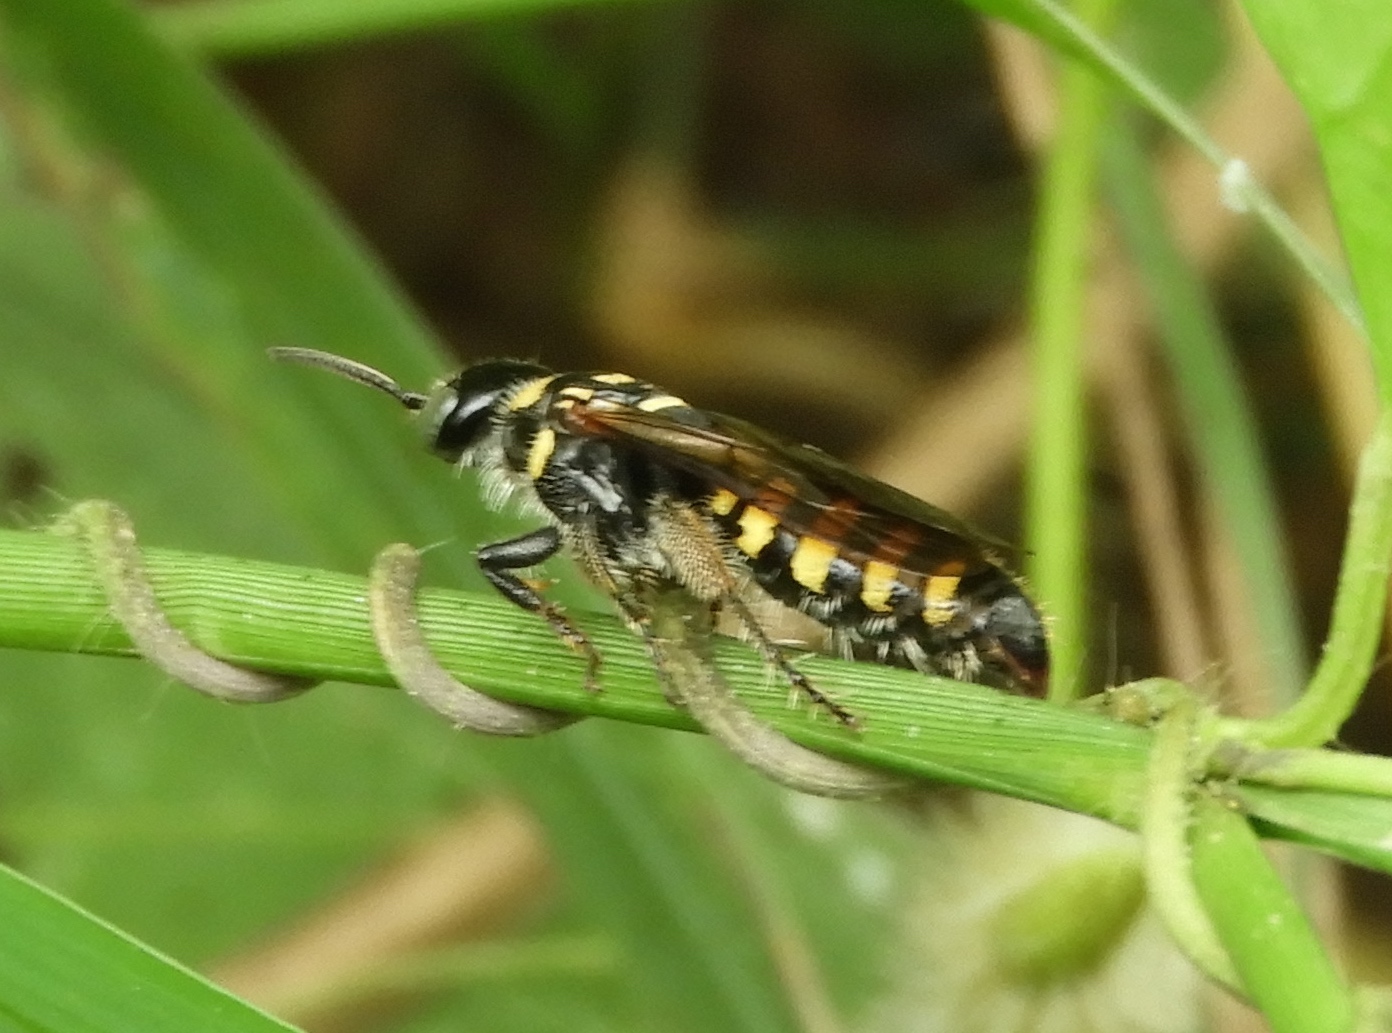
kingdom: Animalia
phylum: Arthropoda
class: Insecta
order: Hymenoptera
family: Tiphiidae
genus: Myzinum
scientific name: Myzinum
